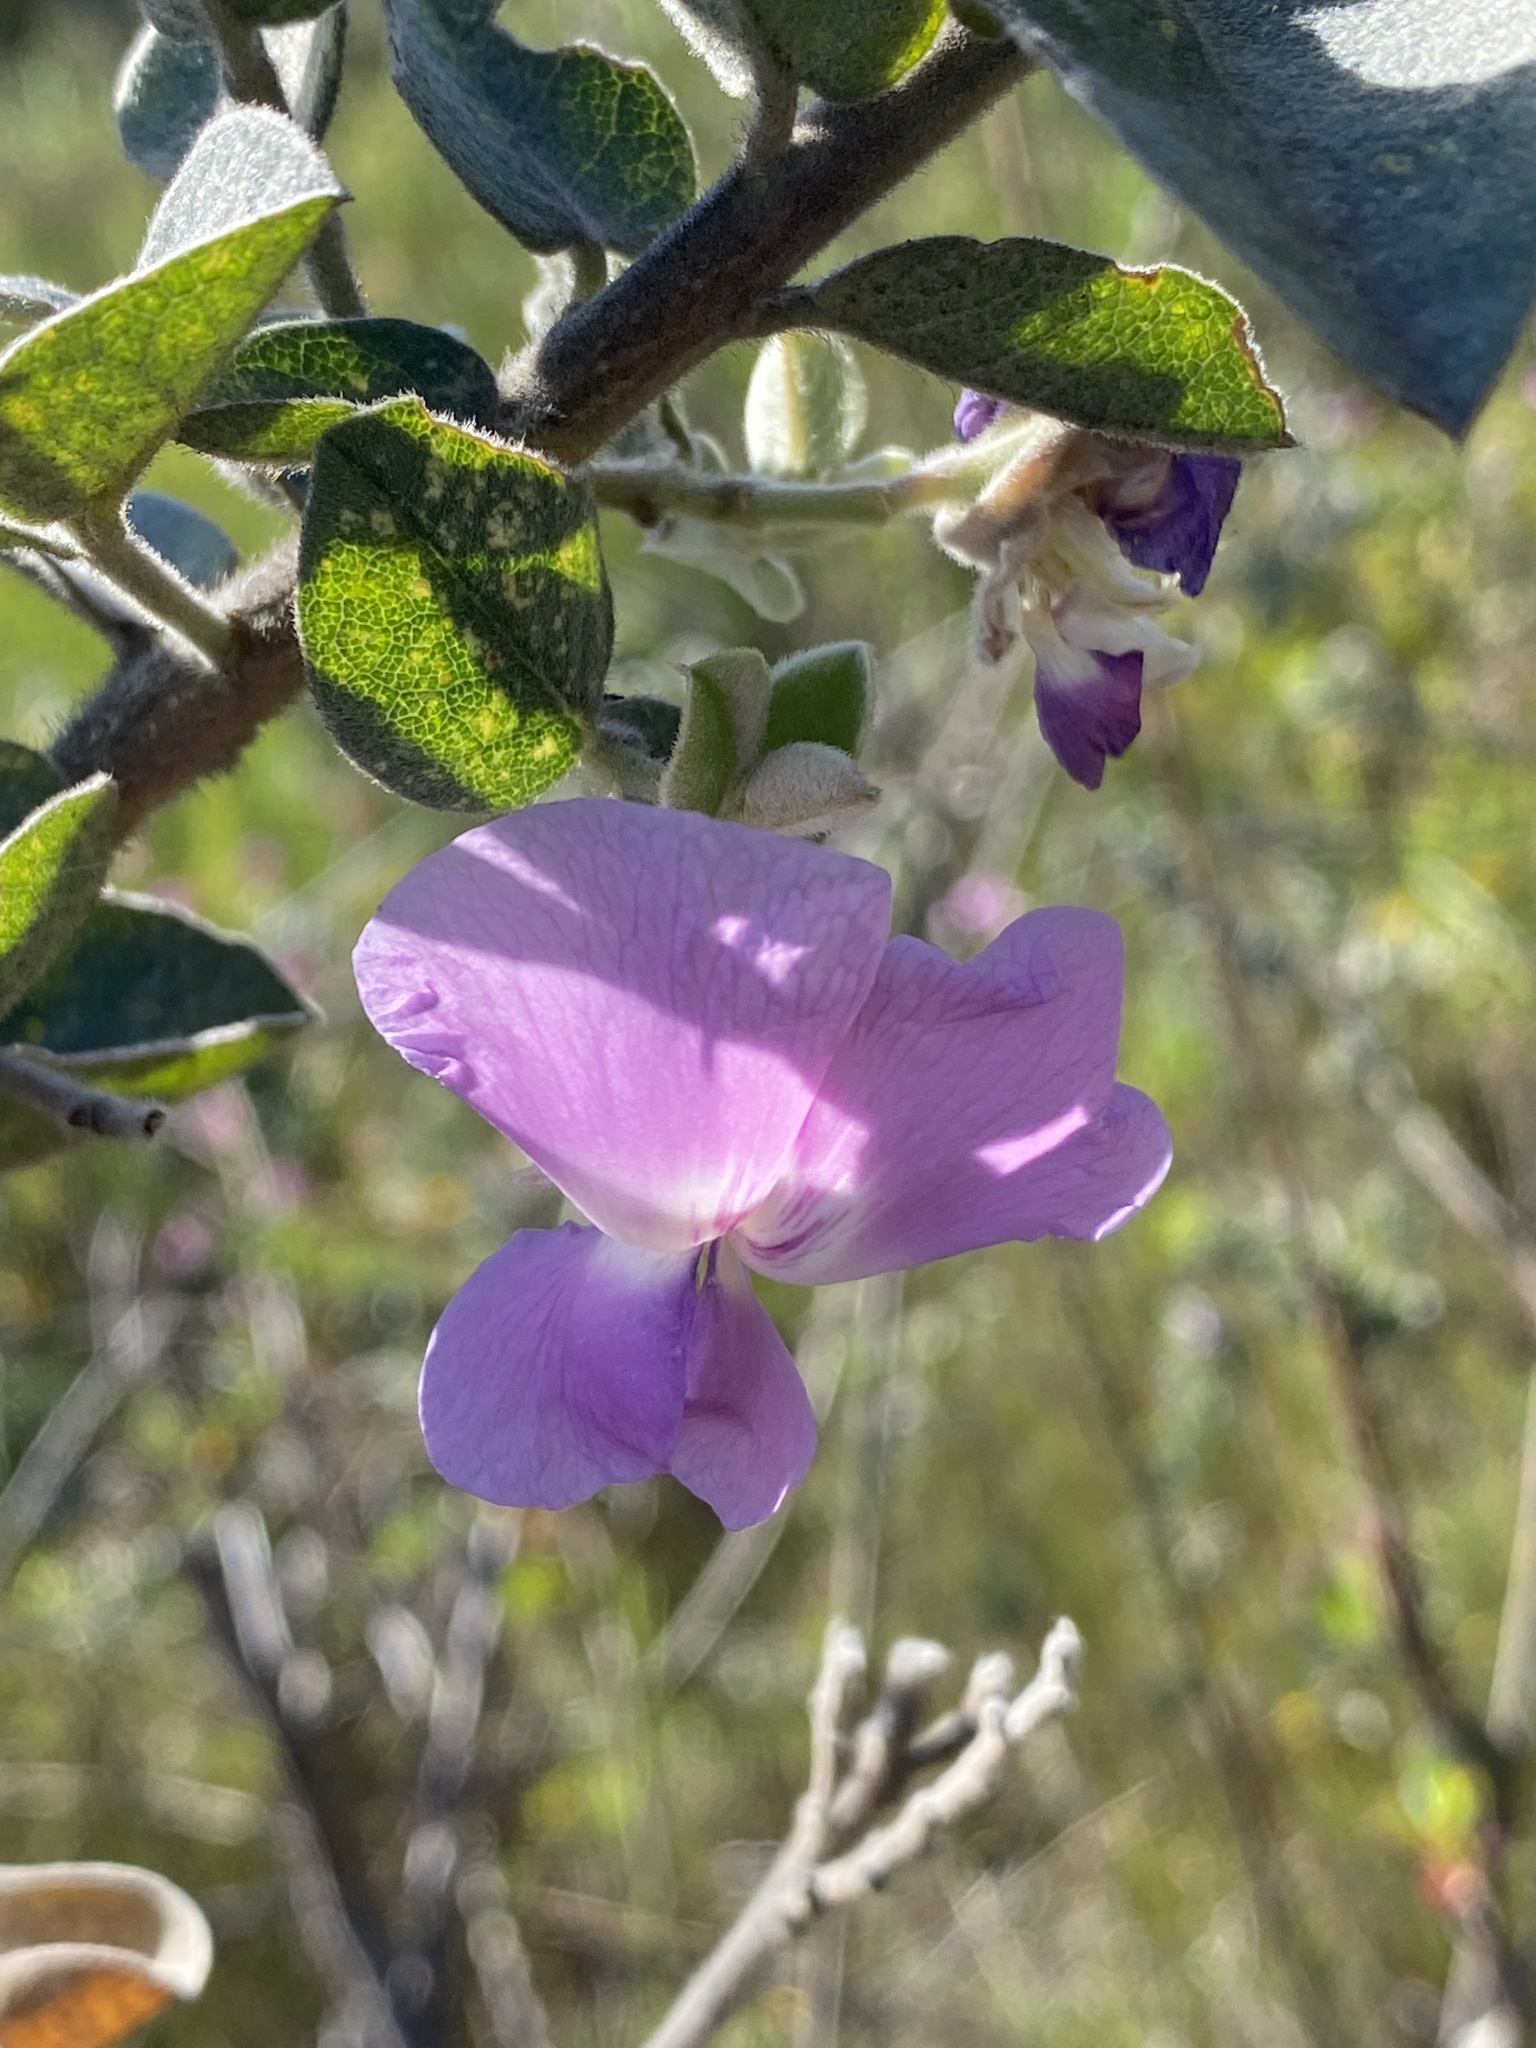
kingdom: Plantae
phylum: Tracheophyta
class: Magnoliopsida
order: Fabales
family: Fabaceae
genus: Podalyria
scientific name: Podalyria cordata
